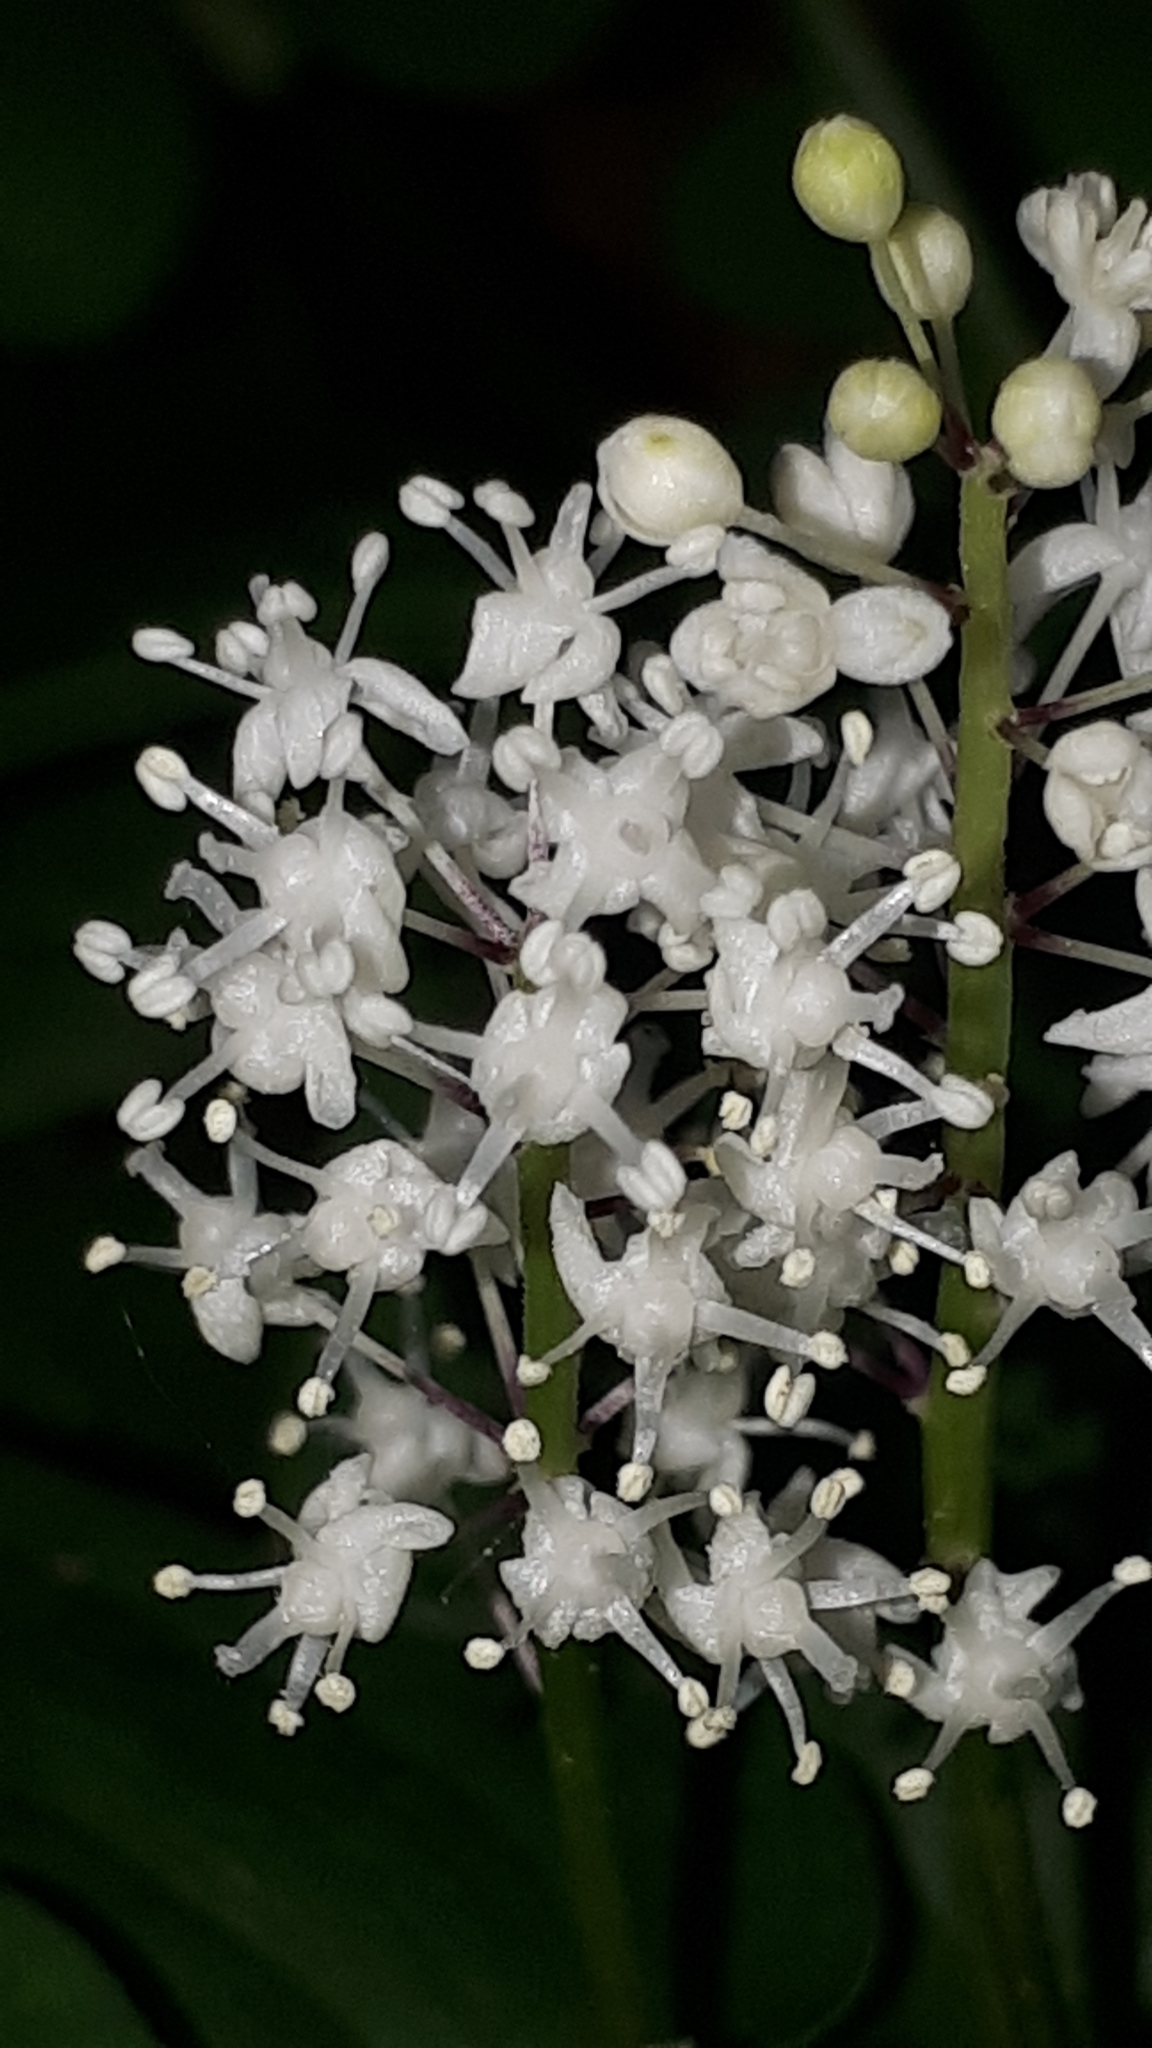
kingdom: Plantae
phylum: Tracheophyta
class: Liliopsida
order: Asparagales
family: Asparagaceae
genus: Maianthemum
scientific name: Maianthemum bifolium
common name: May lily
